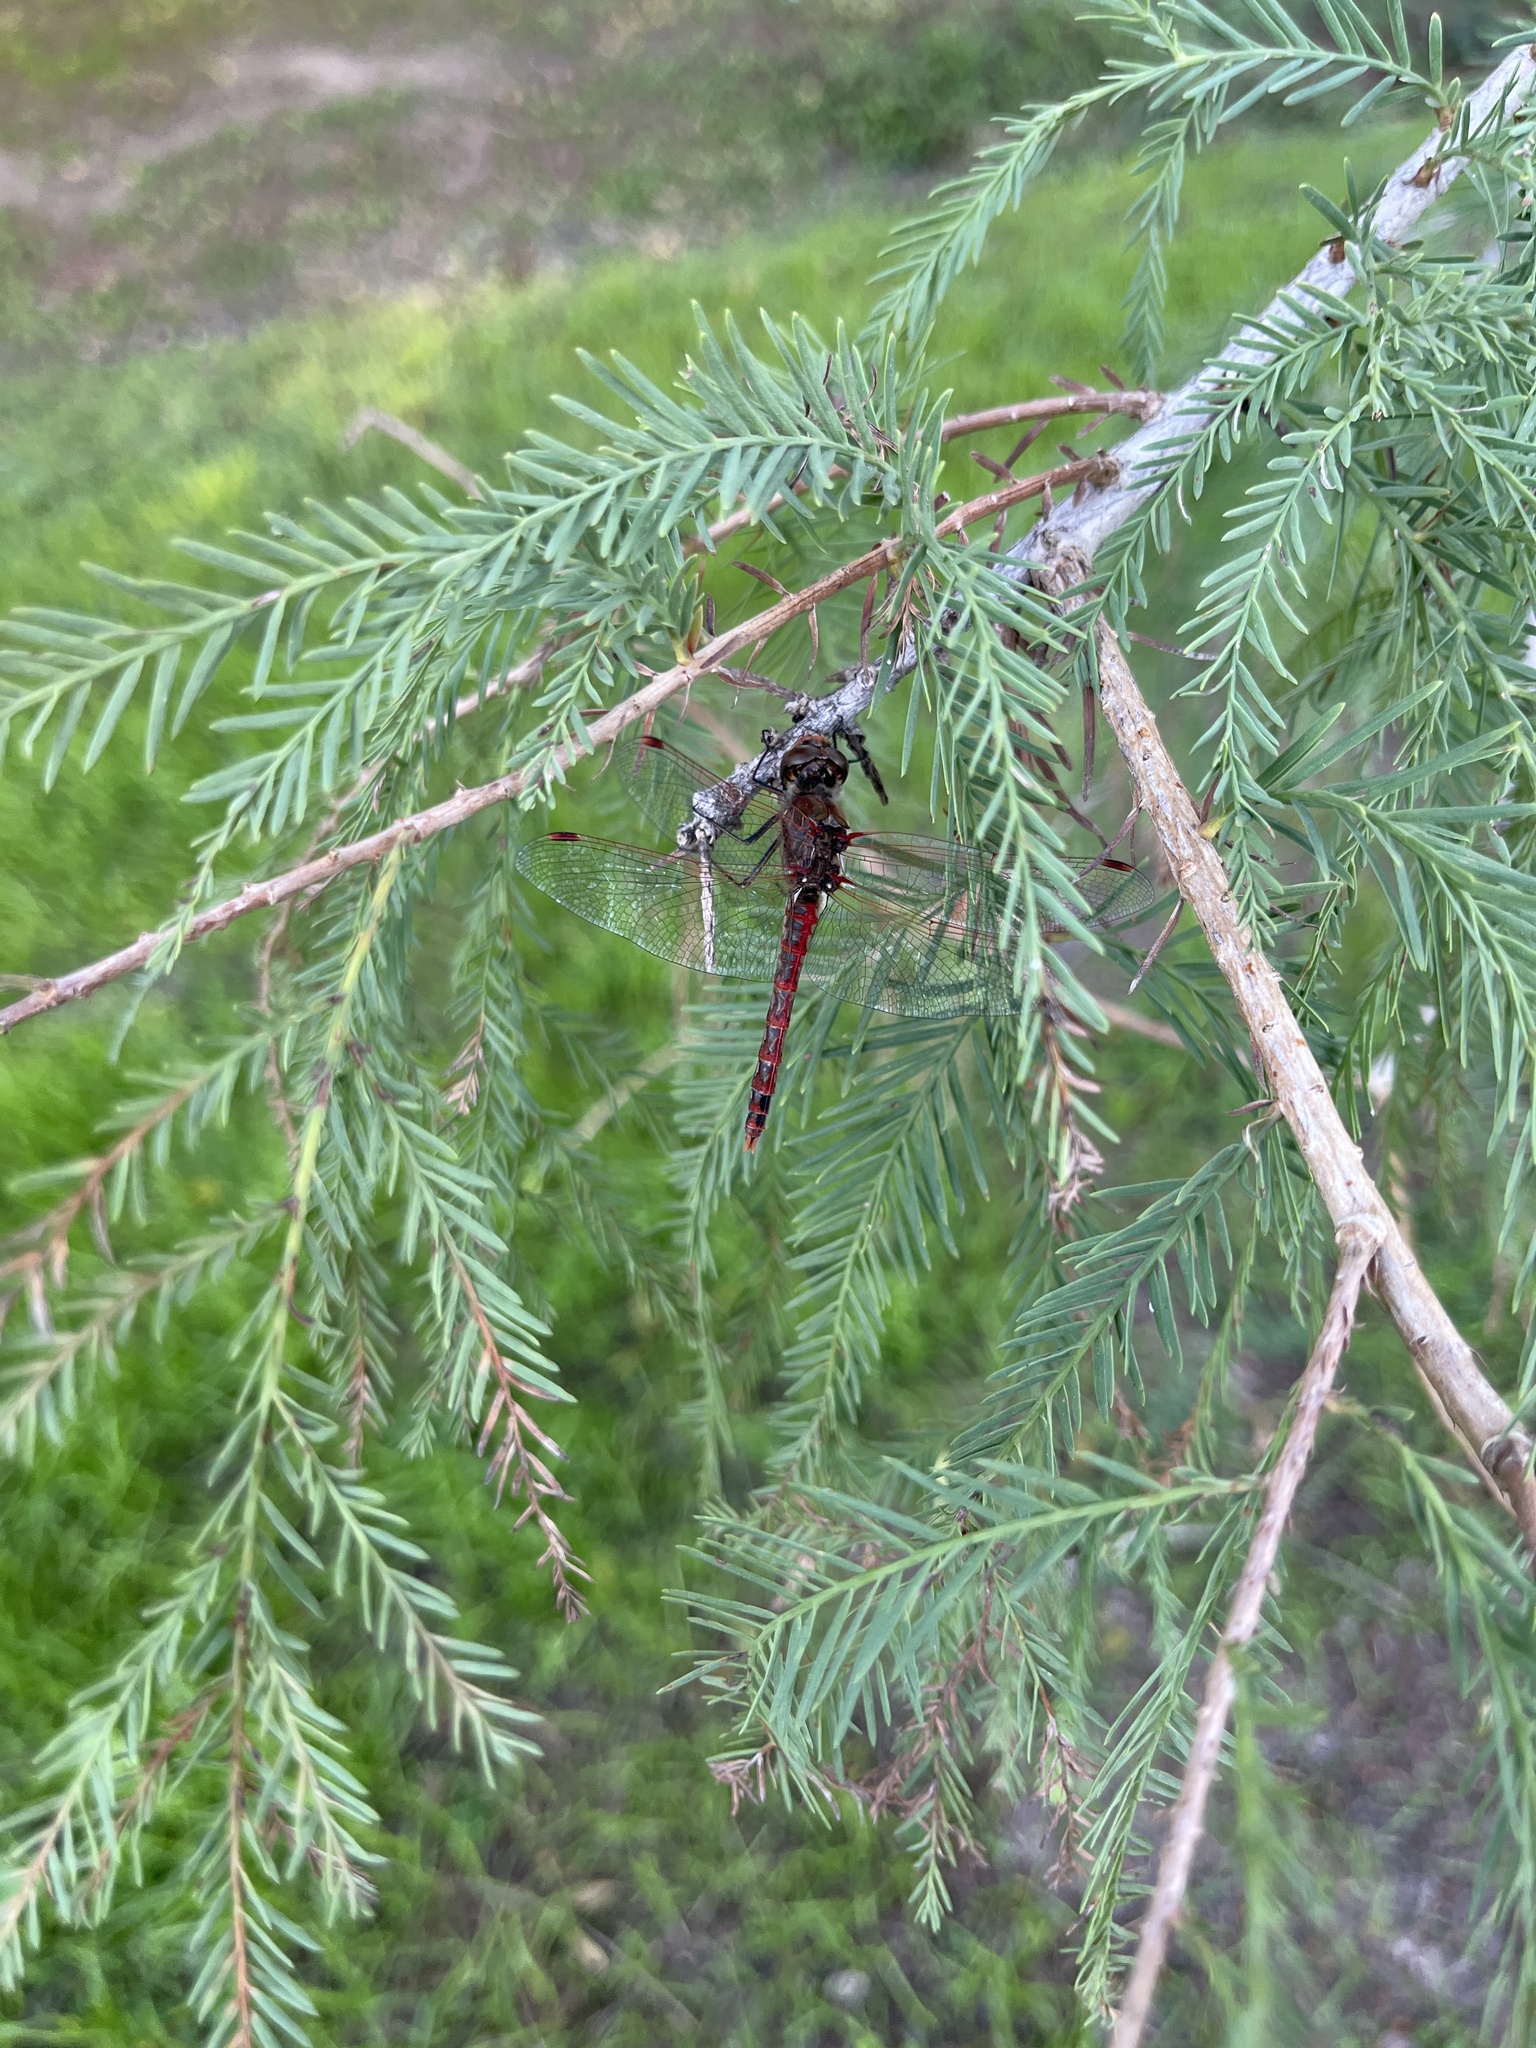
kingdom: Animalia
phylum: Arthropoda
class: Insecta
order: Odonata
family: Libellulidae
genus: Sympetrum
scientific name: Sympetrum corruptum
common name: Variegated meadowhawk
